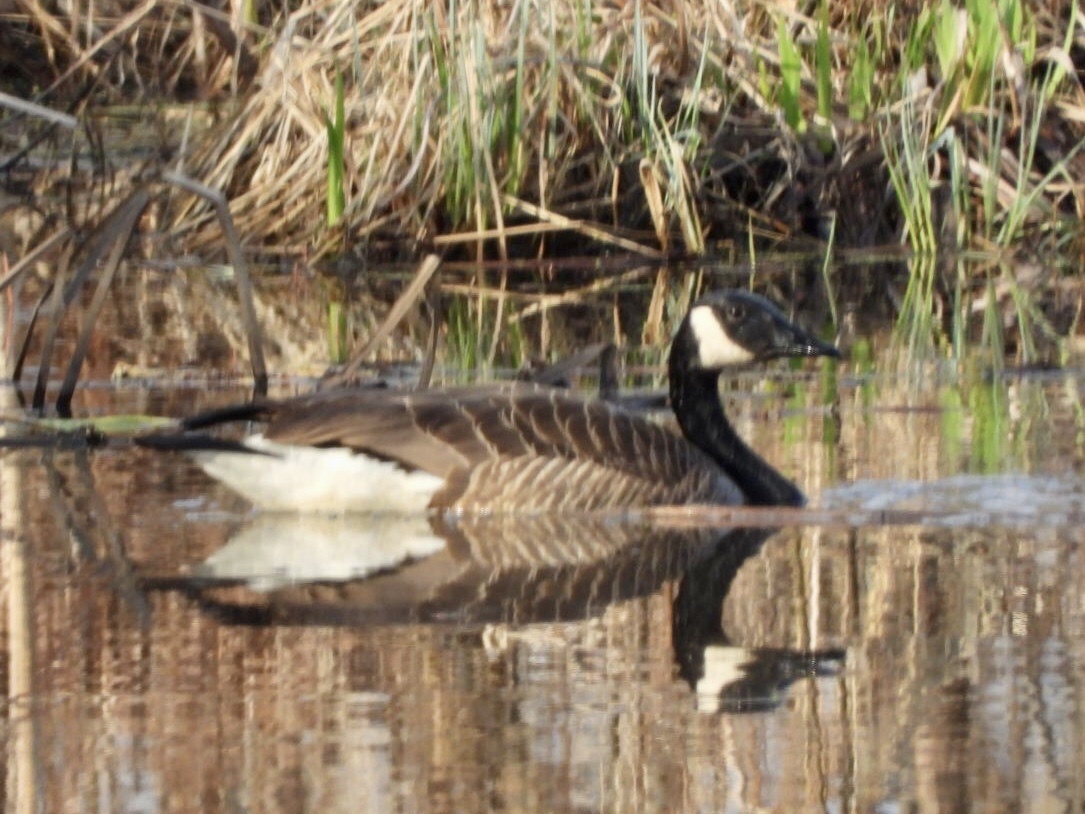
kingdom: Animalia
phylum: Chordata
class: Aves
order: Anseriformes
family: Anatidae
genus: Branta
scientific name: Branta canadensis
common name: Canada goose
